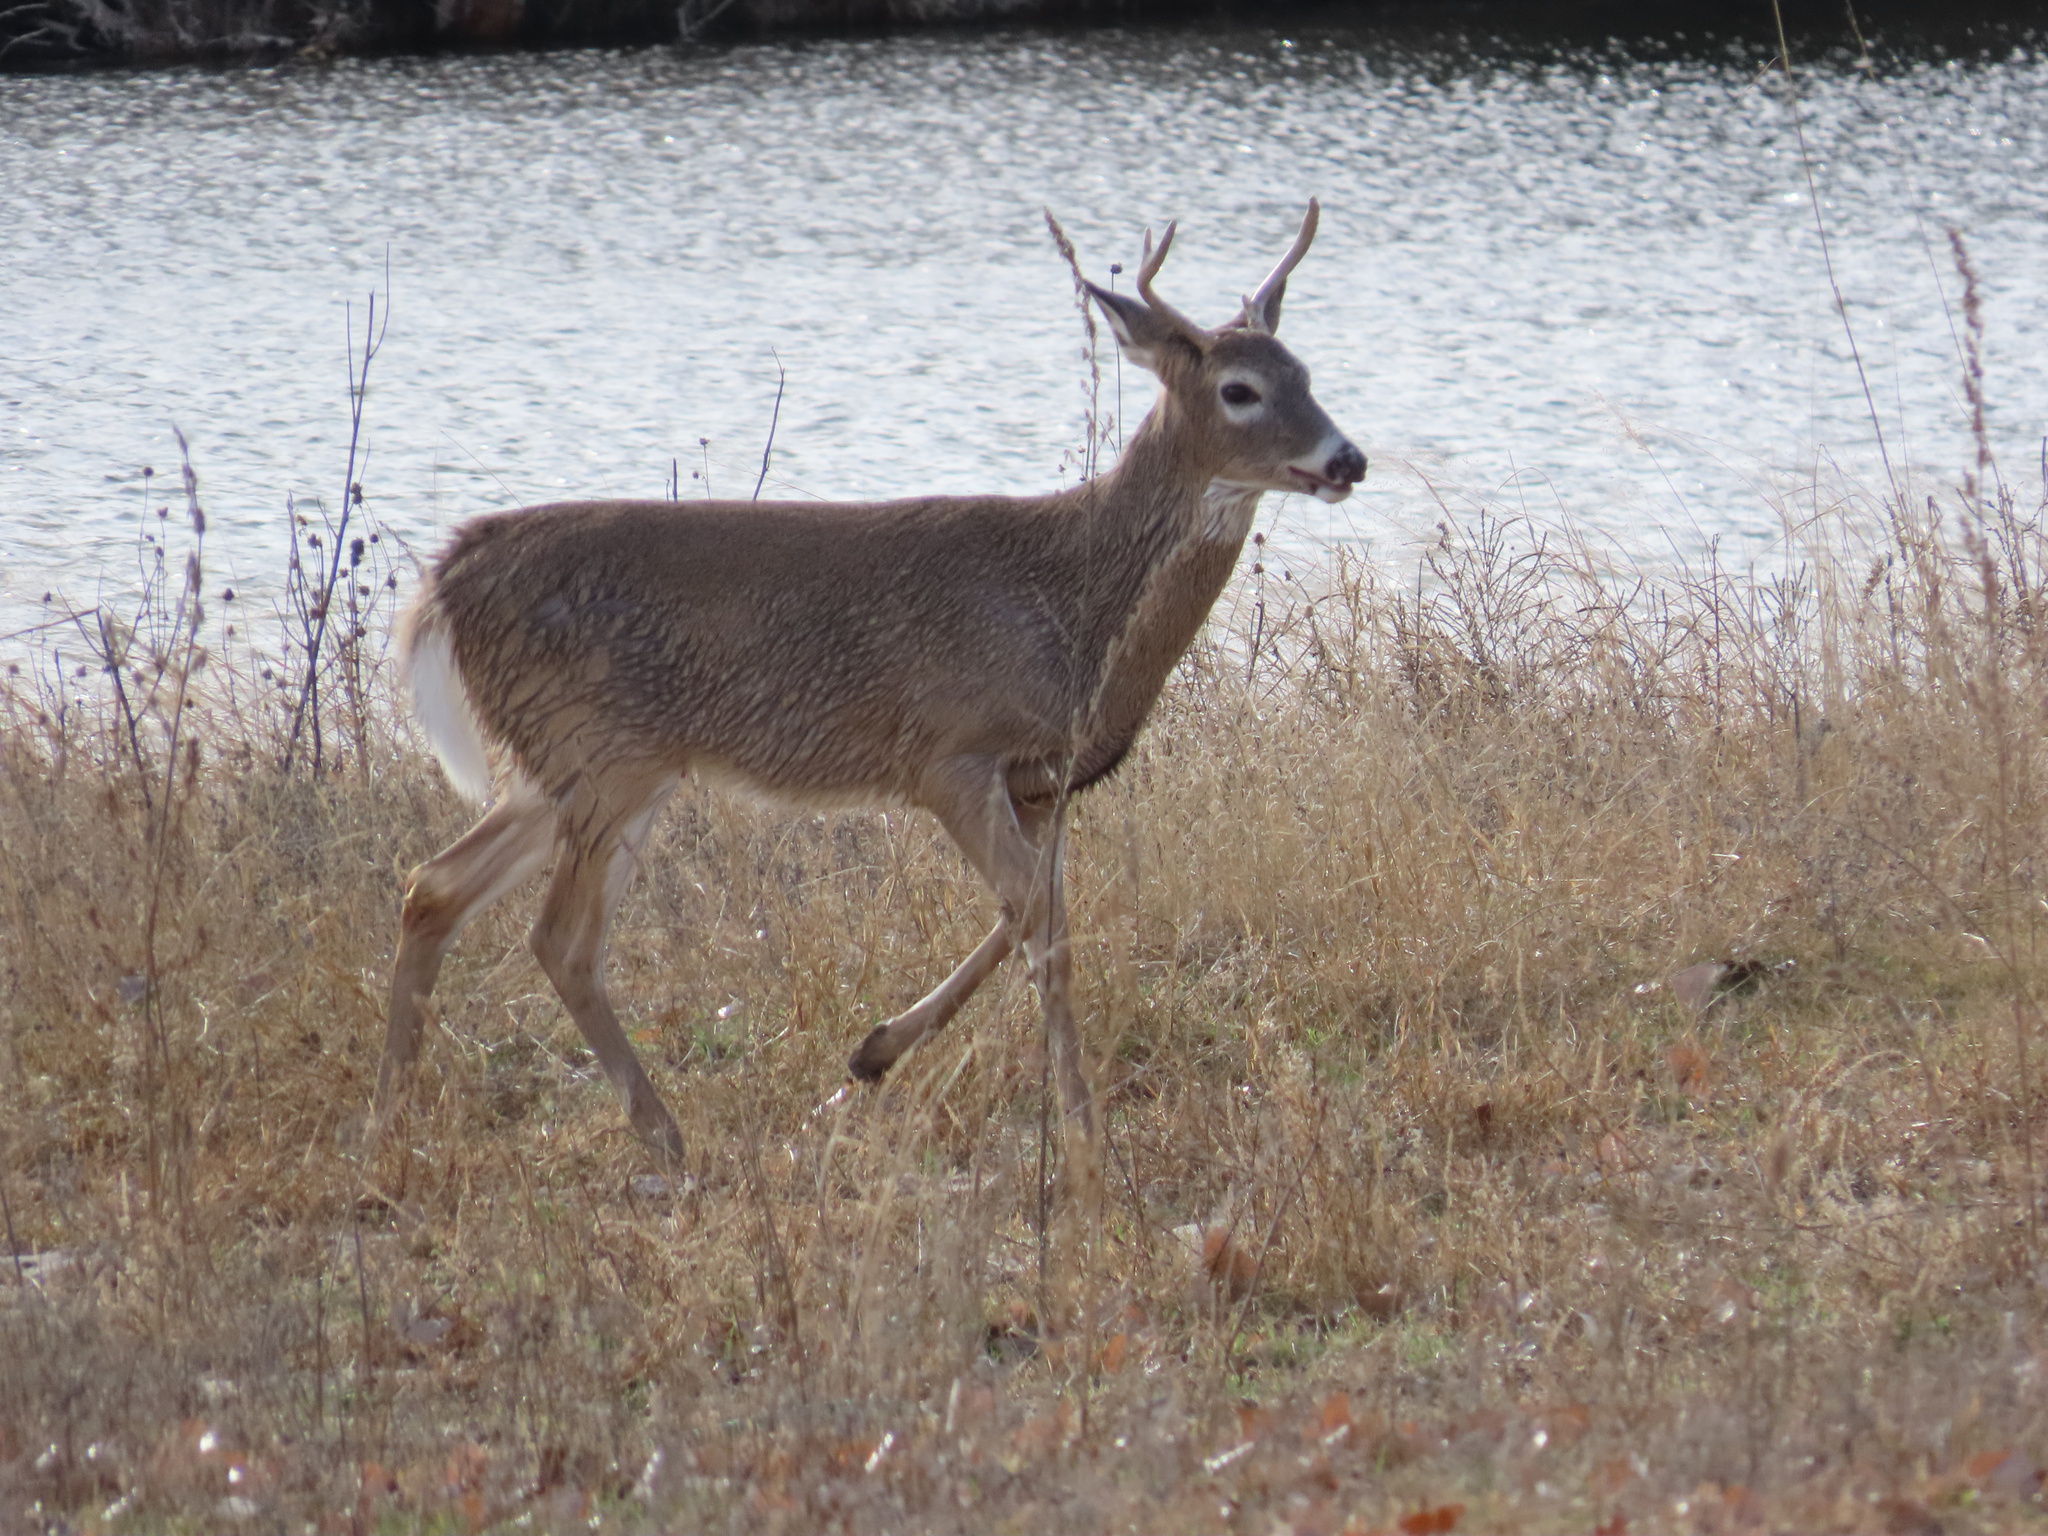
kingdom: Animalia
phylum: Chordata
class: Mammalia
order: Artiodactyla
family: Cervidae
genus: Odocoileus
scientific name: Odocoileus virginianus
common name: White-tailed deer
